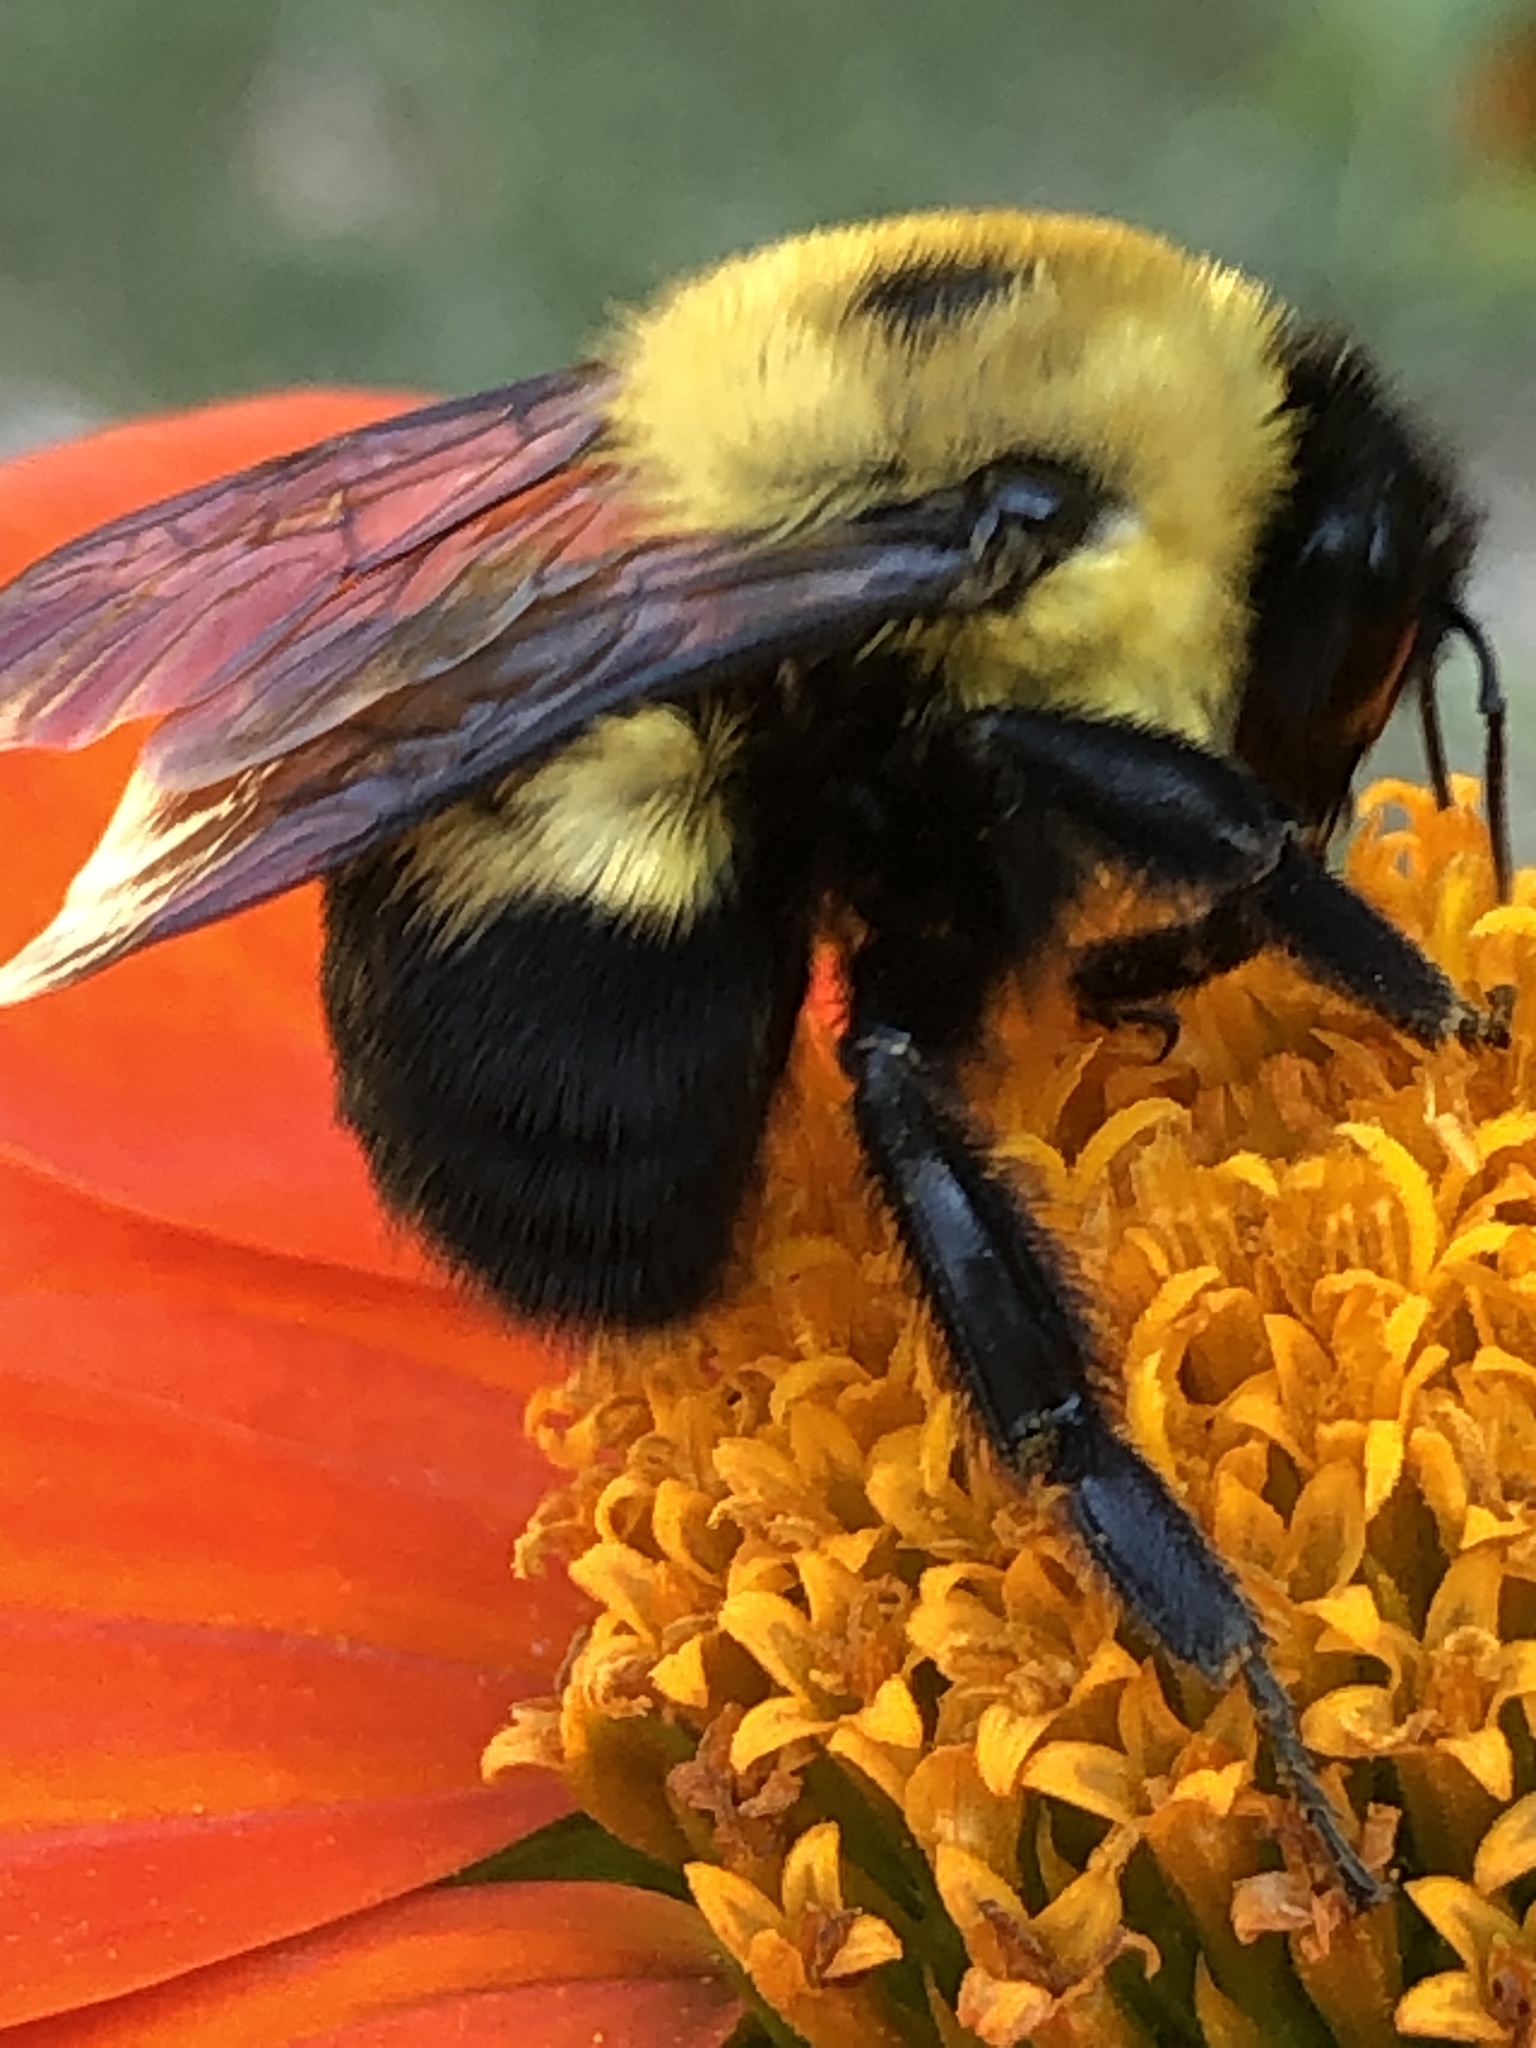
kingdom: Animalia
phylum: Arthropoda
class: Insecta
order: Hymenoptera
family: Apidae
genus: Bombus
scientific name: Bombus griseocollis
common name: Brown-belted bumble bee
